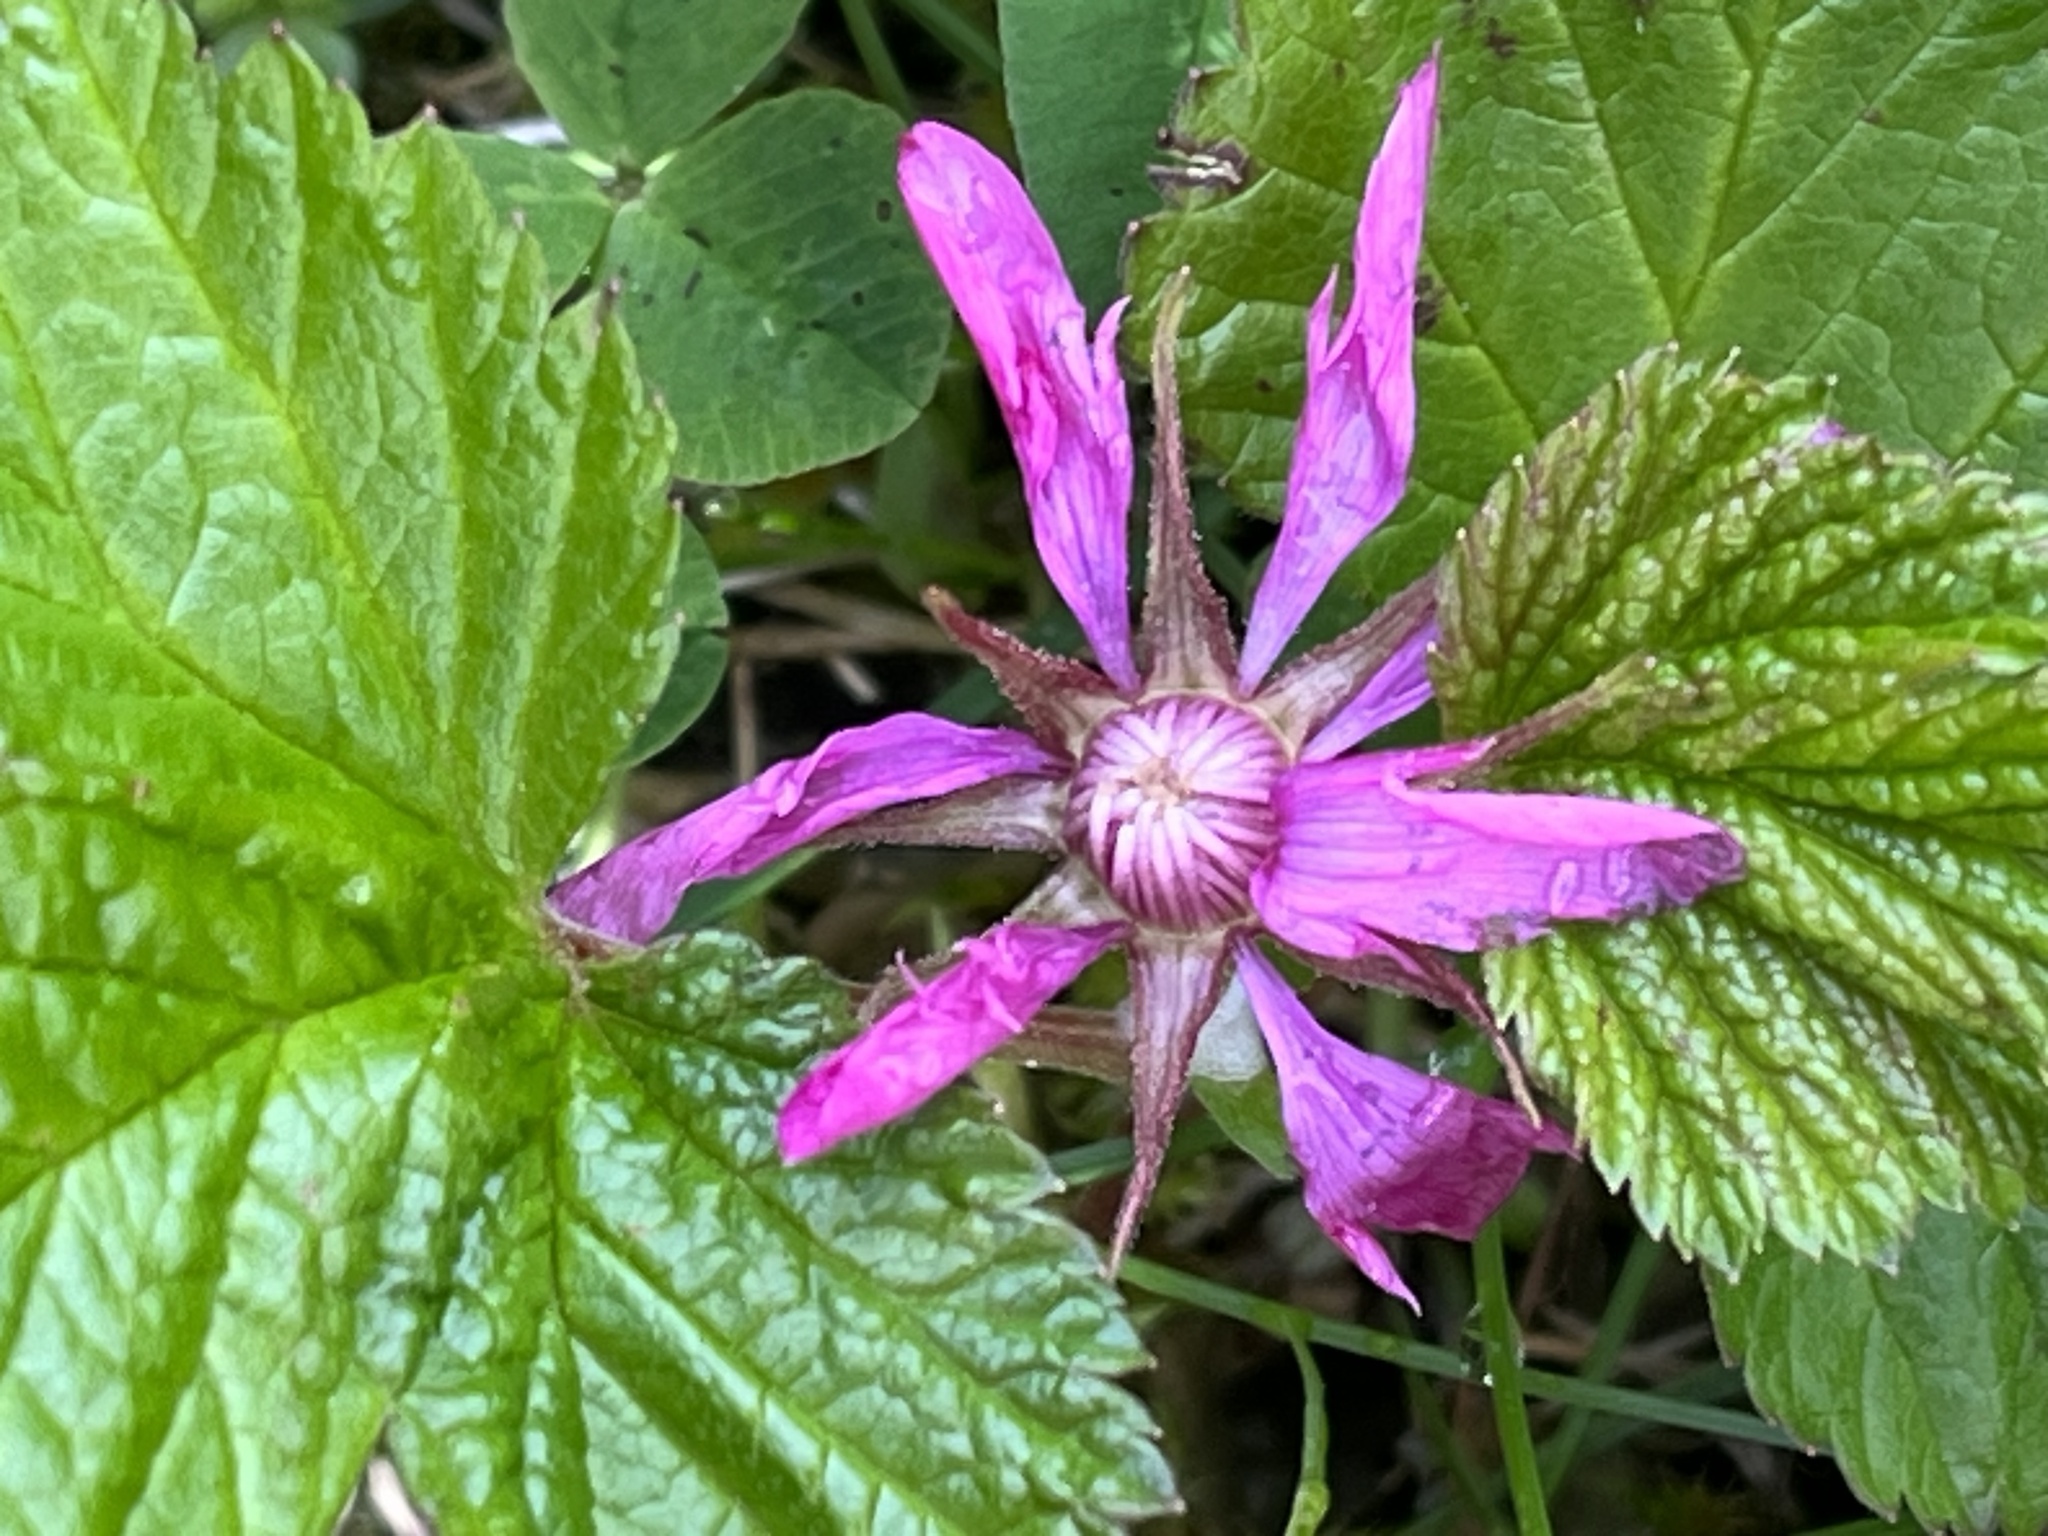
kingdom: Plantae
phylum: Tracheophyta
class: Magnoliopsida
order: Rosales
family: Rosaceae
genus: Rubus
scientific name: Rubus arcticus
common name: Arctic bramble
